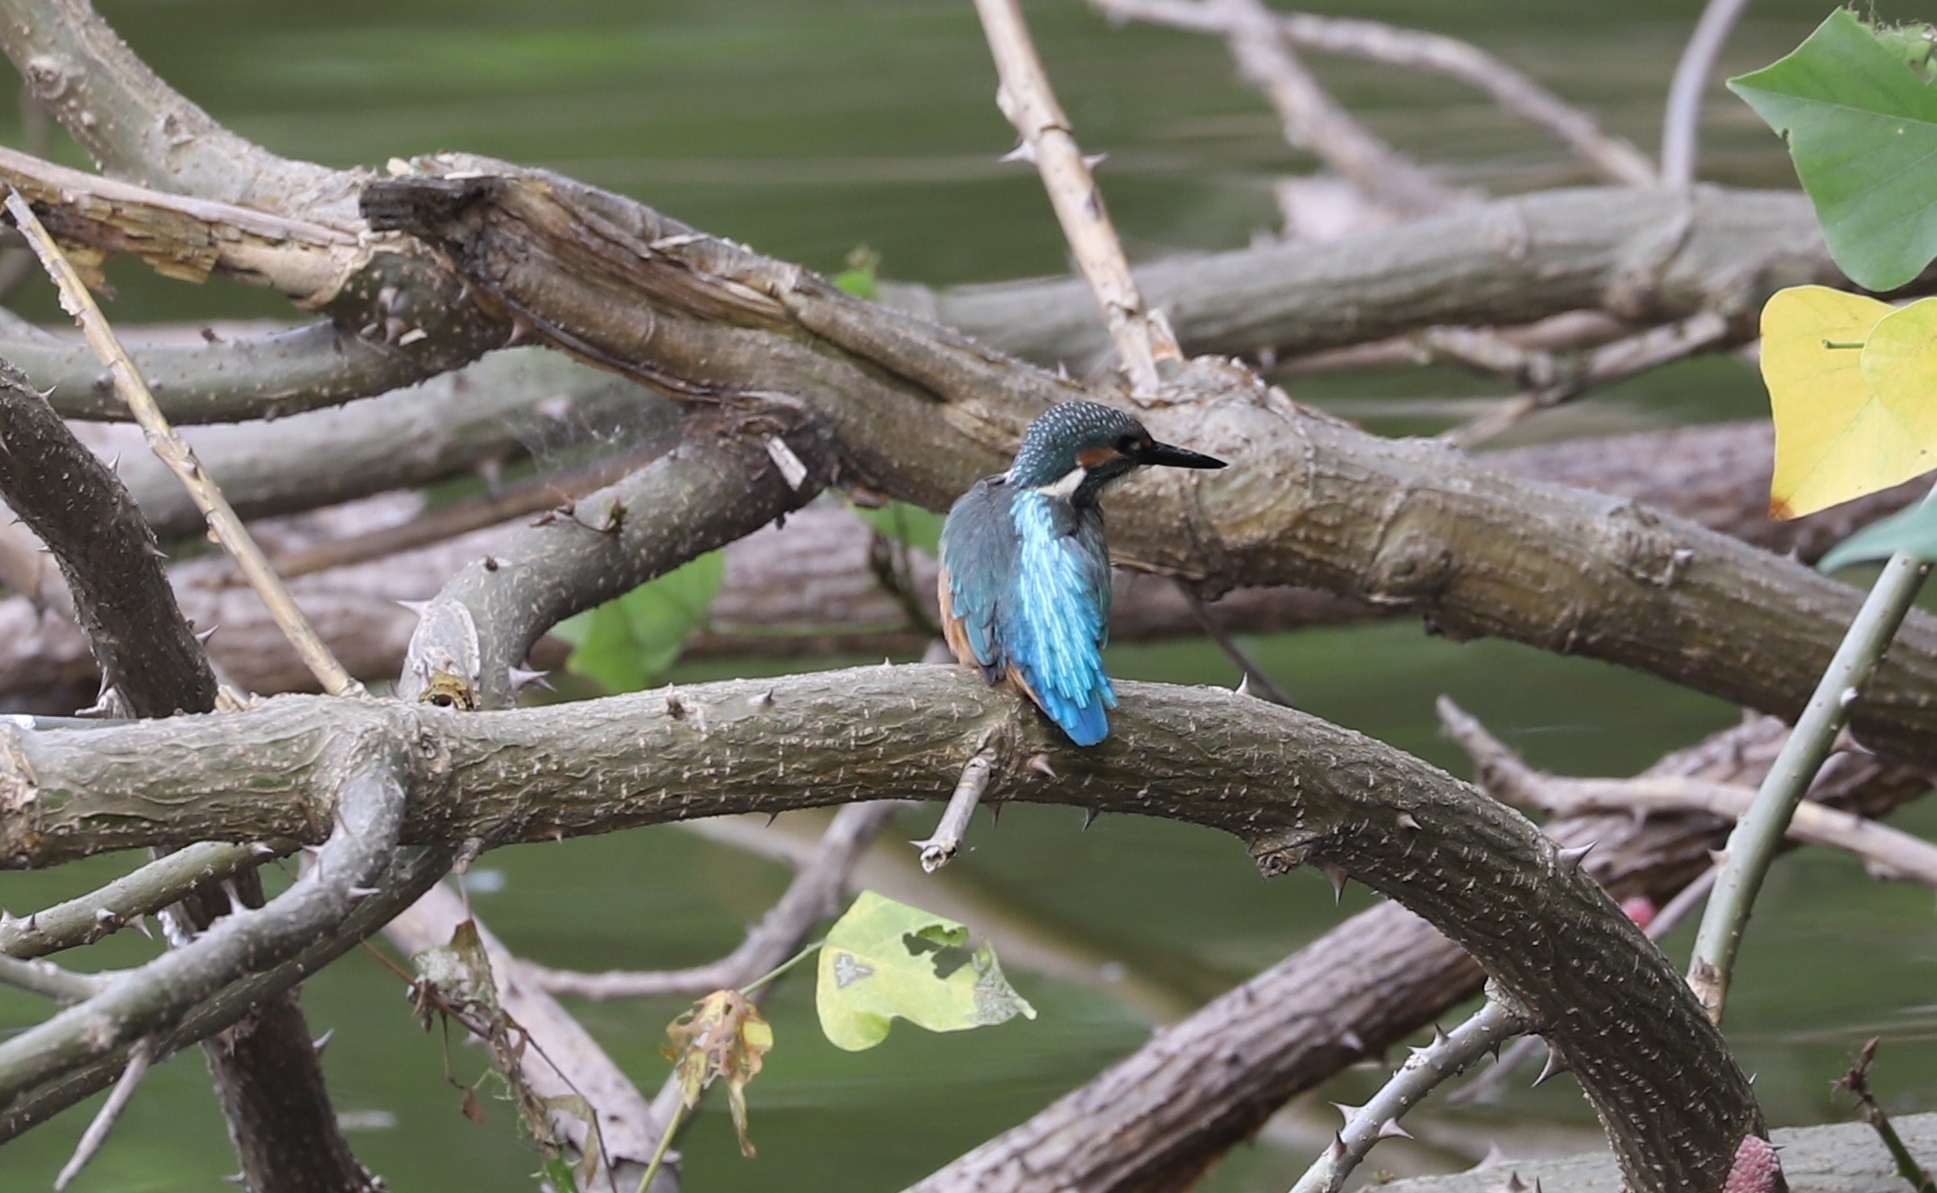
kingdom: Animalia
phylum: Chordata
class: Aves
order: Coraciiformes
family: Alcedinidae
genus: Alcedo
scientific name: Alcedo atthis
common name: Common kingfisher
